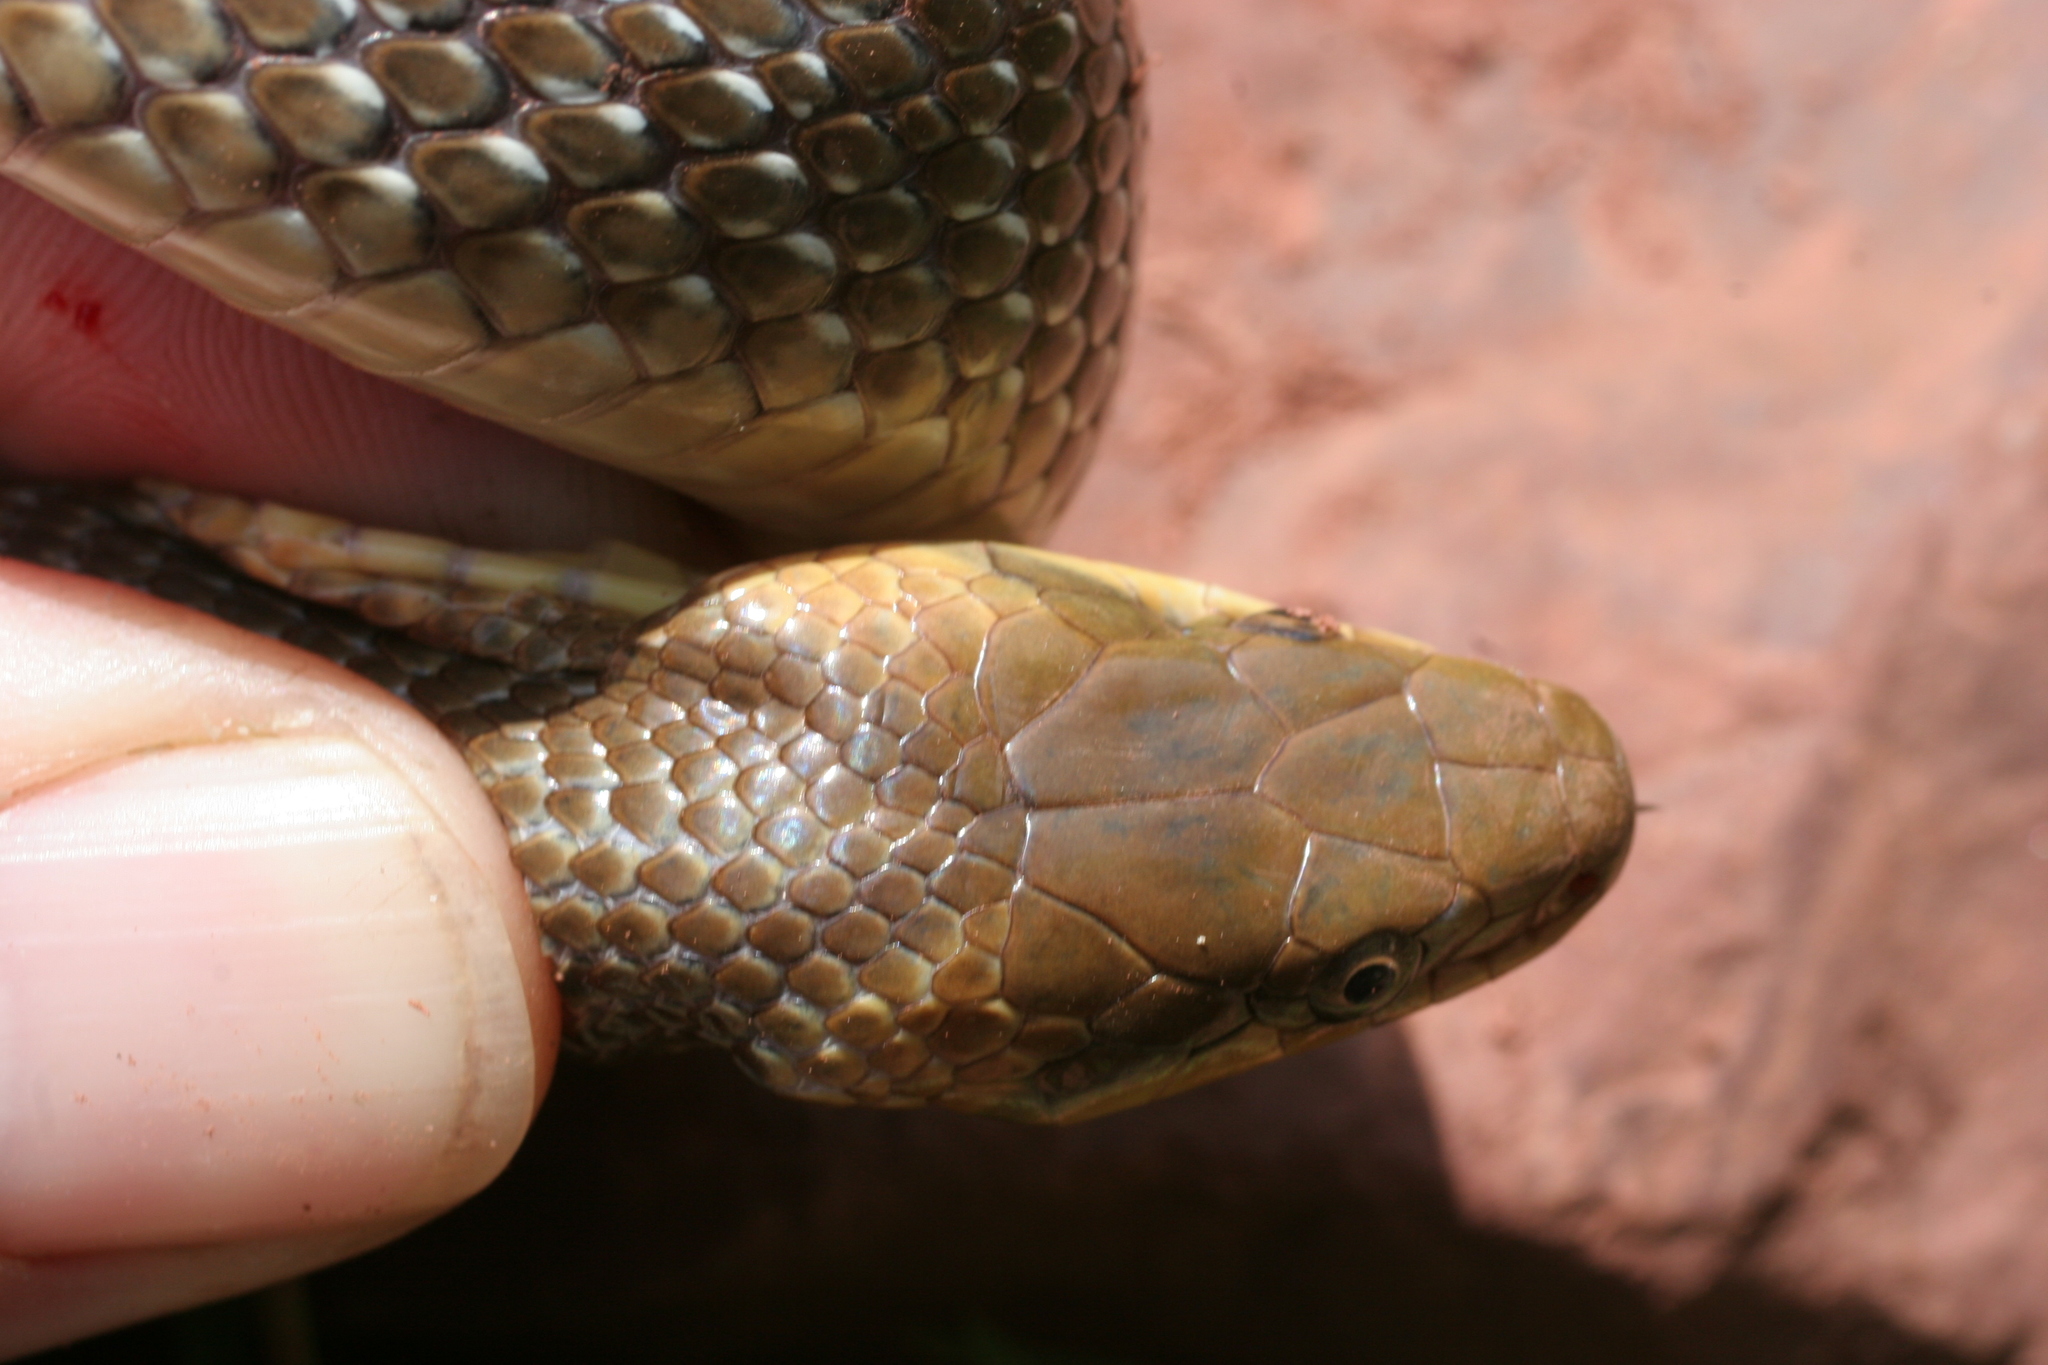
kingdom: Animalia
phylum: Chordata
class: Squamata
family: Colubridae
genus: Zamenis
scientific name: Zamenis longissimus
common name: Aesculapean snake
